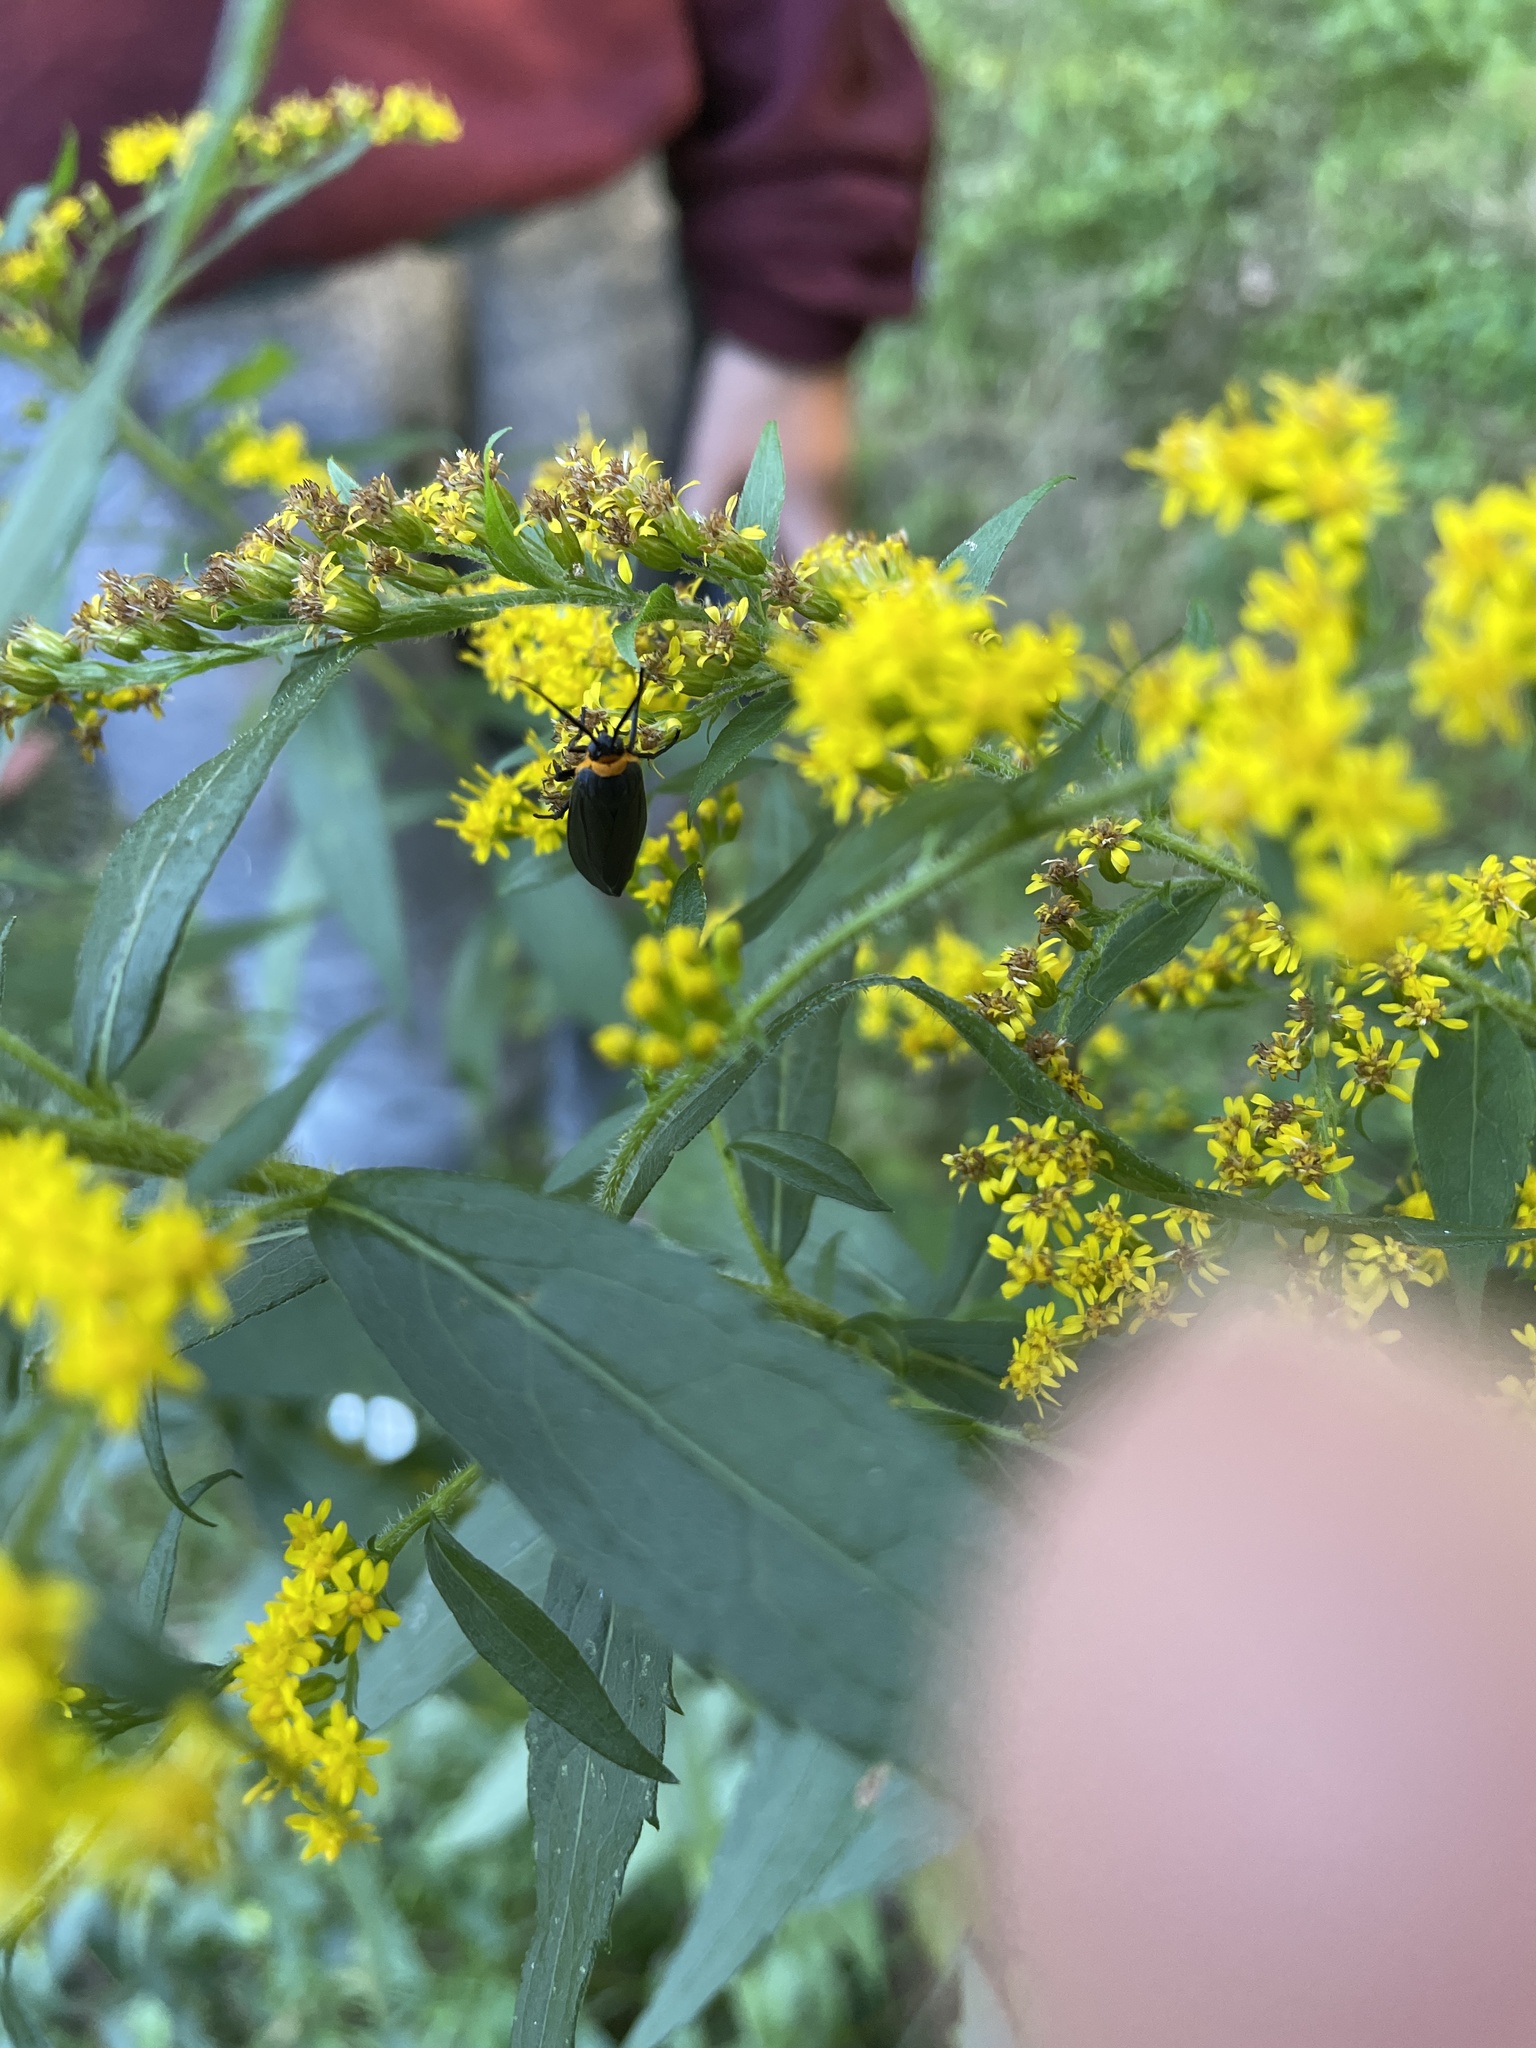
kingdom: Animalia
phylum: Arthropoda
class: Insecta
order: Lepidoptera
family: Erebidae
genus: Cisseps
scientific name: Cisseps fulvicollis
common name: Yellow-collared scape moth
